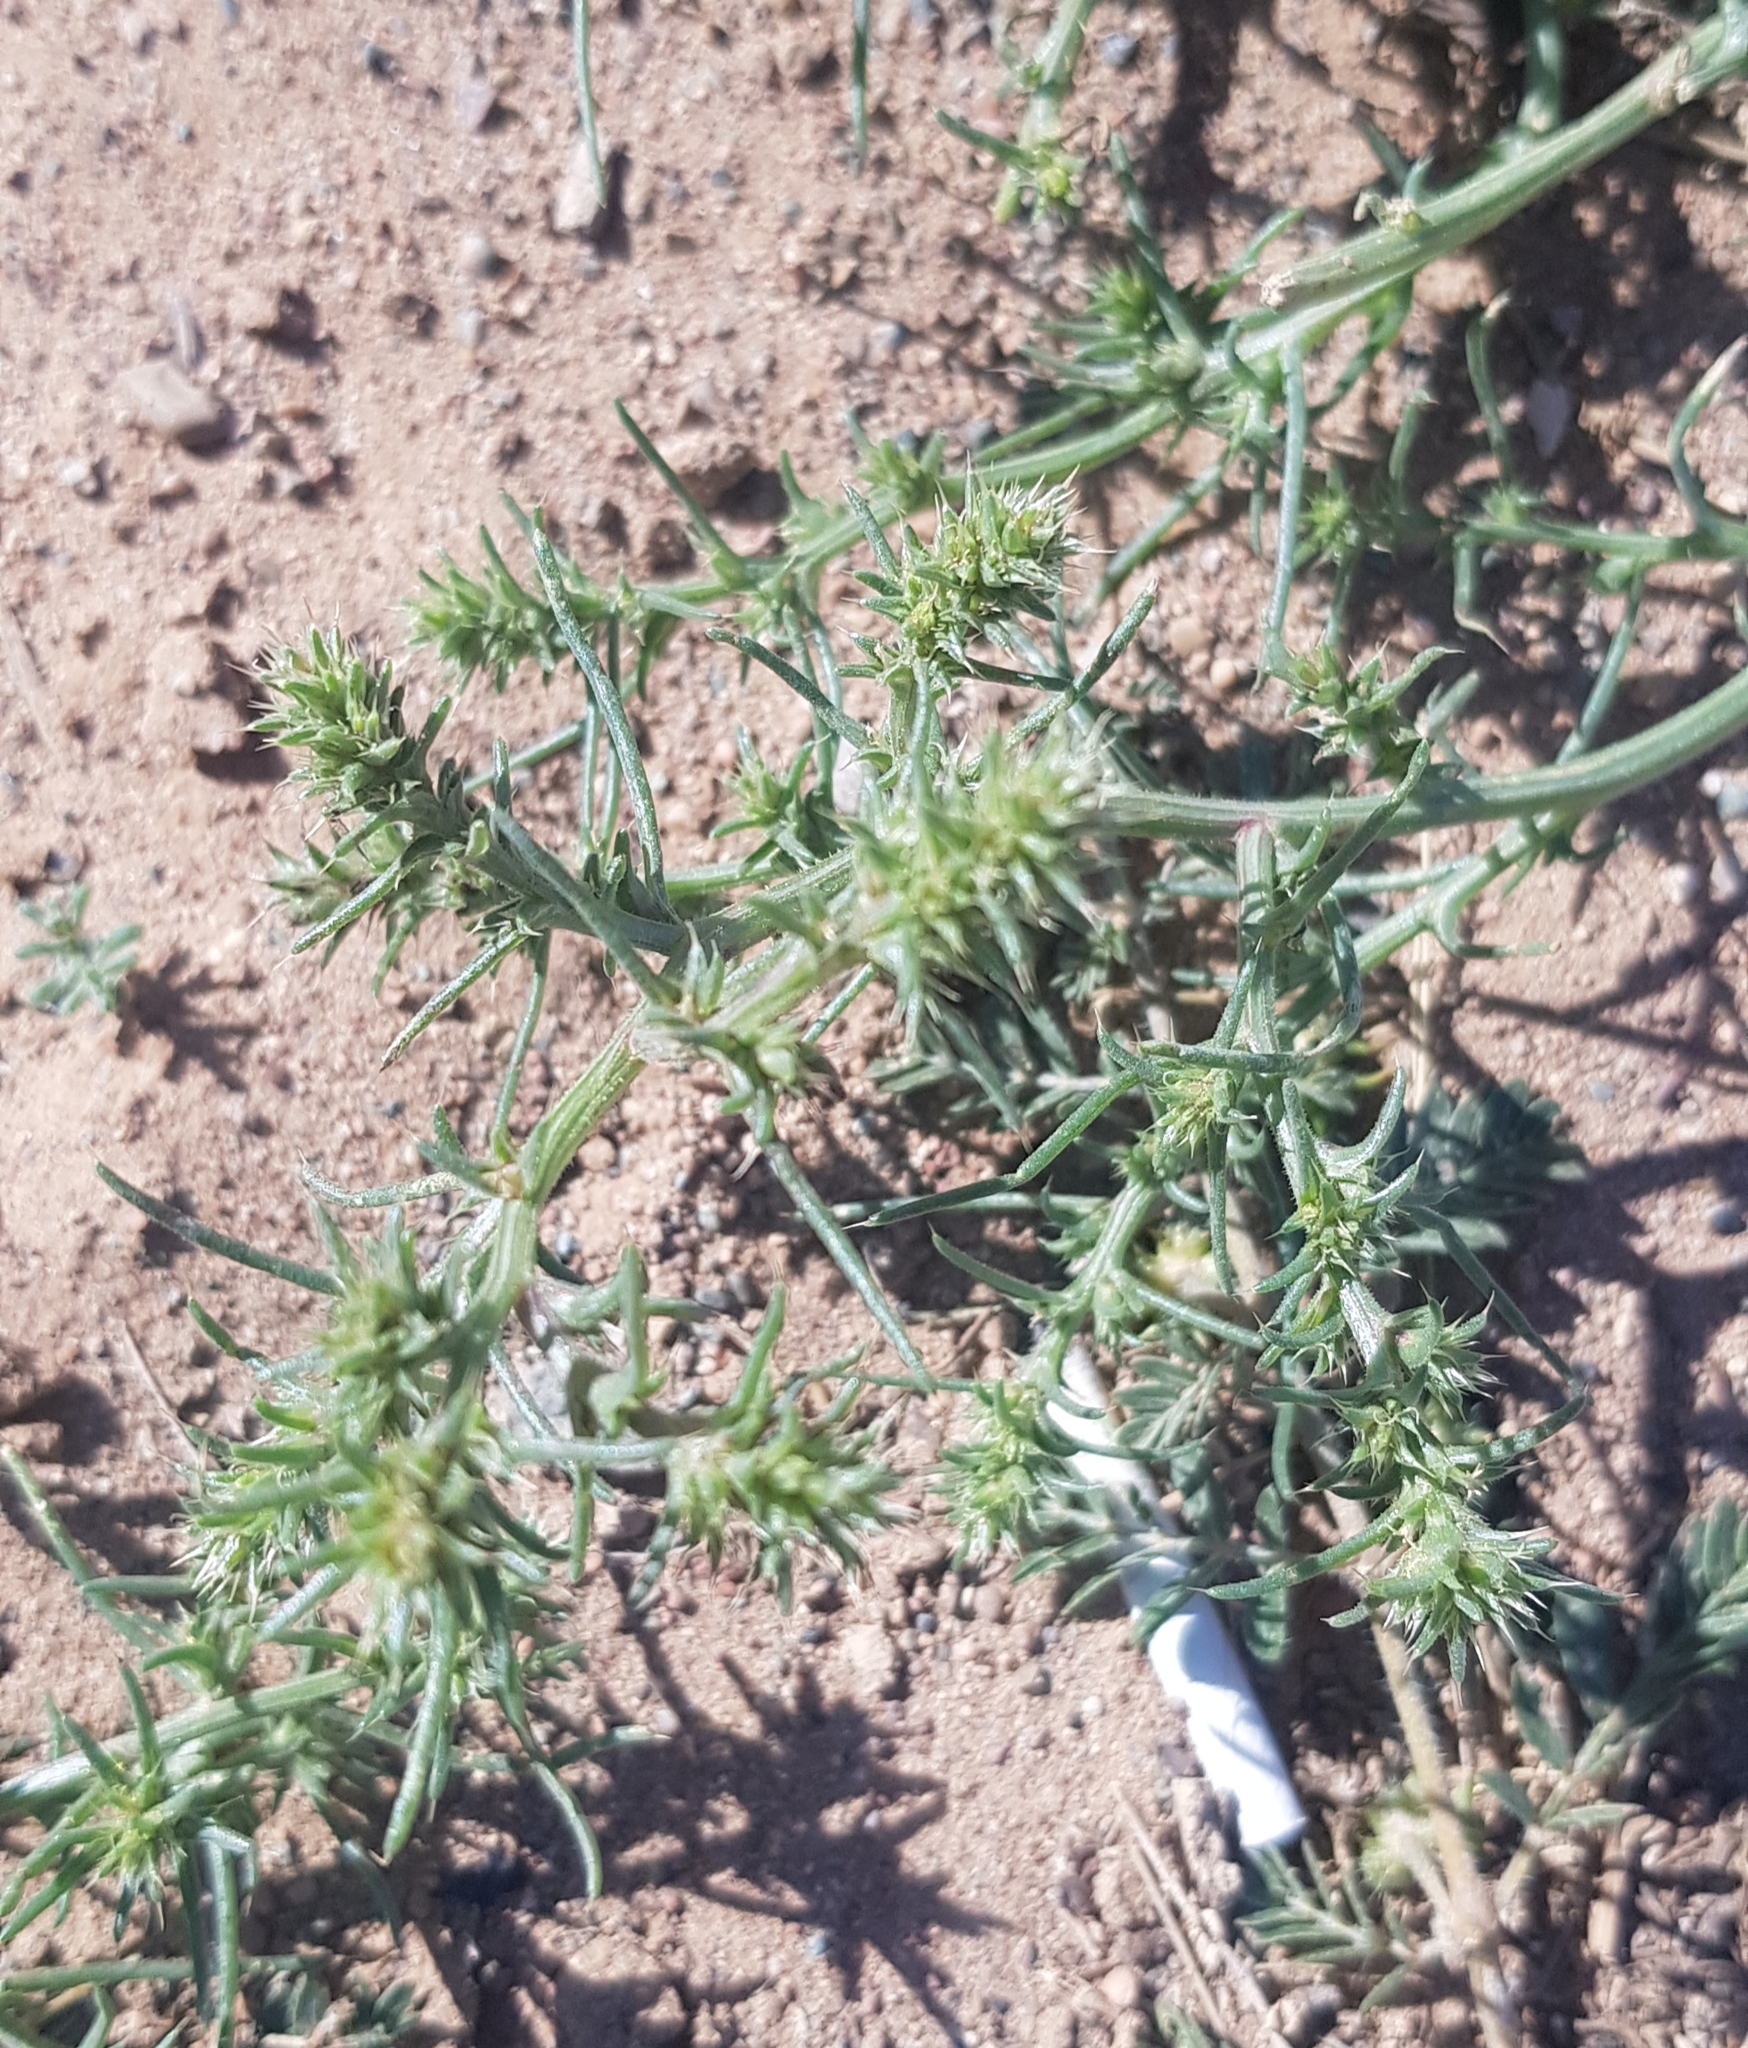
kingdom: Plantae
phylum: Tracheophyta
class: Magnoliopsida
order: Caryophyllales
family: Amaranthaceae
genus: Salsola
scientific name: Salsola tragus
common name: Prickly russian thistle
